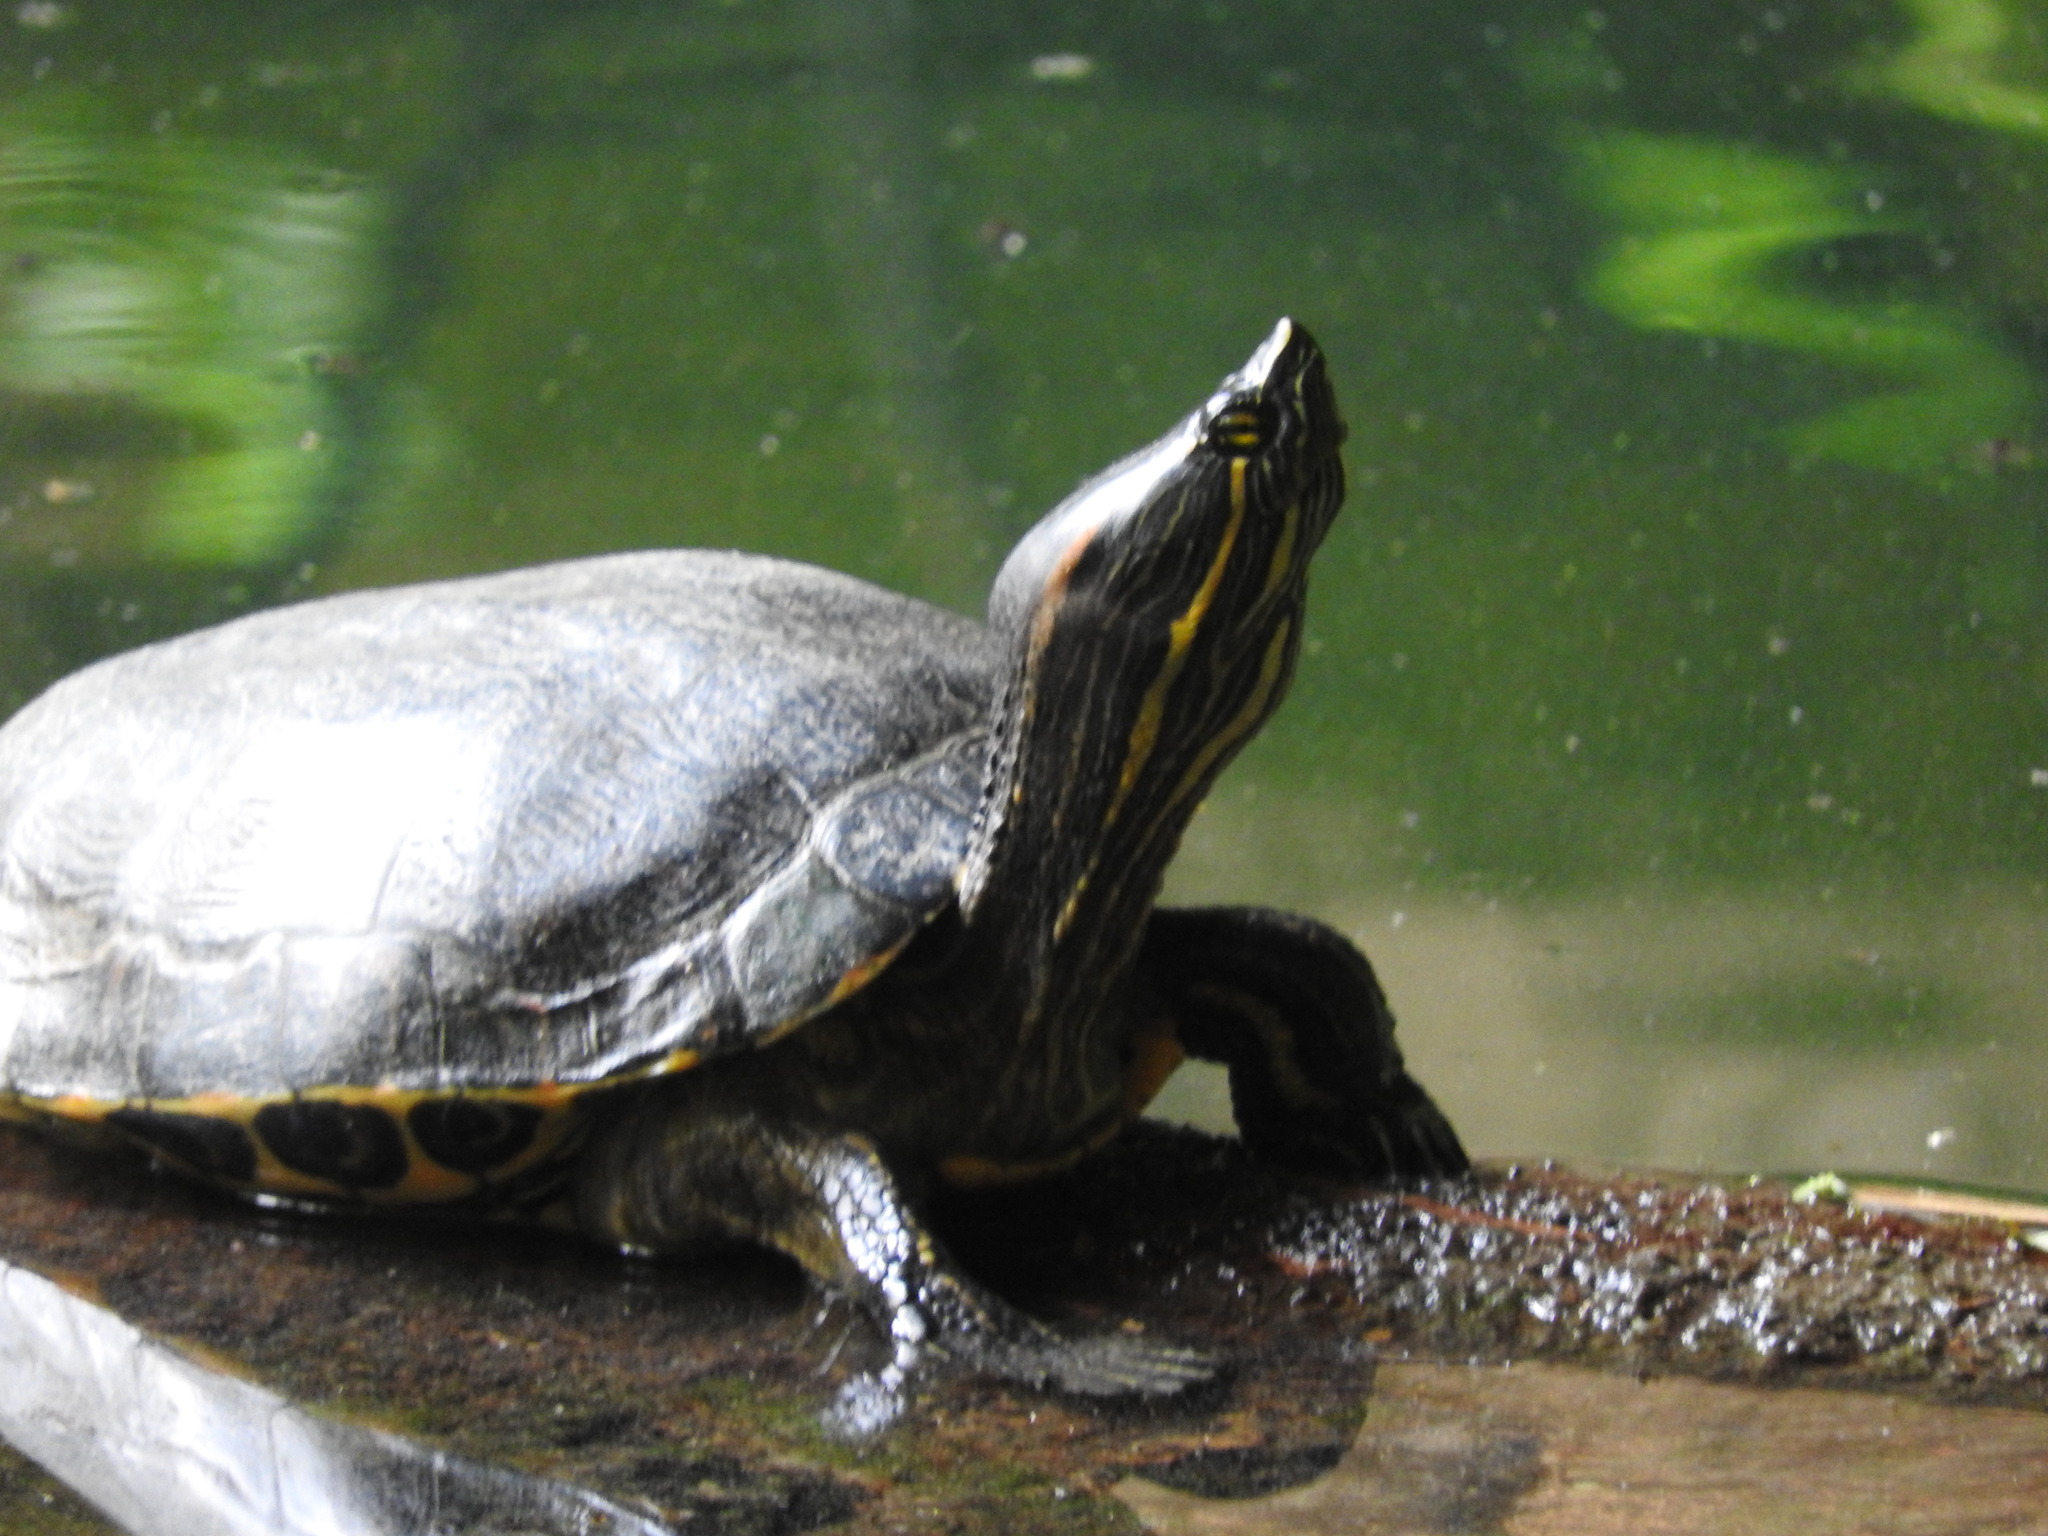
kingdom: Animalia
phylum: Chordata
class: Testudines
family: Emydidae
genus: Trachemys
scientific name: Trachemys venusta
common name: Mesoamerican slider
